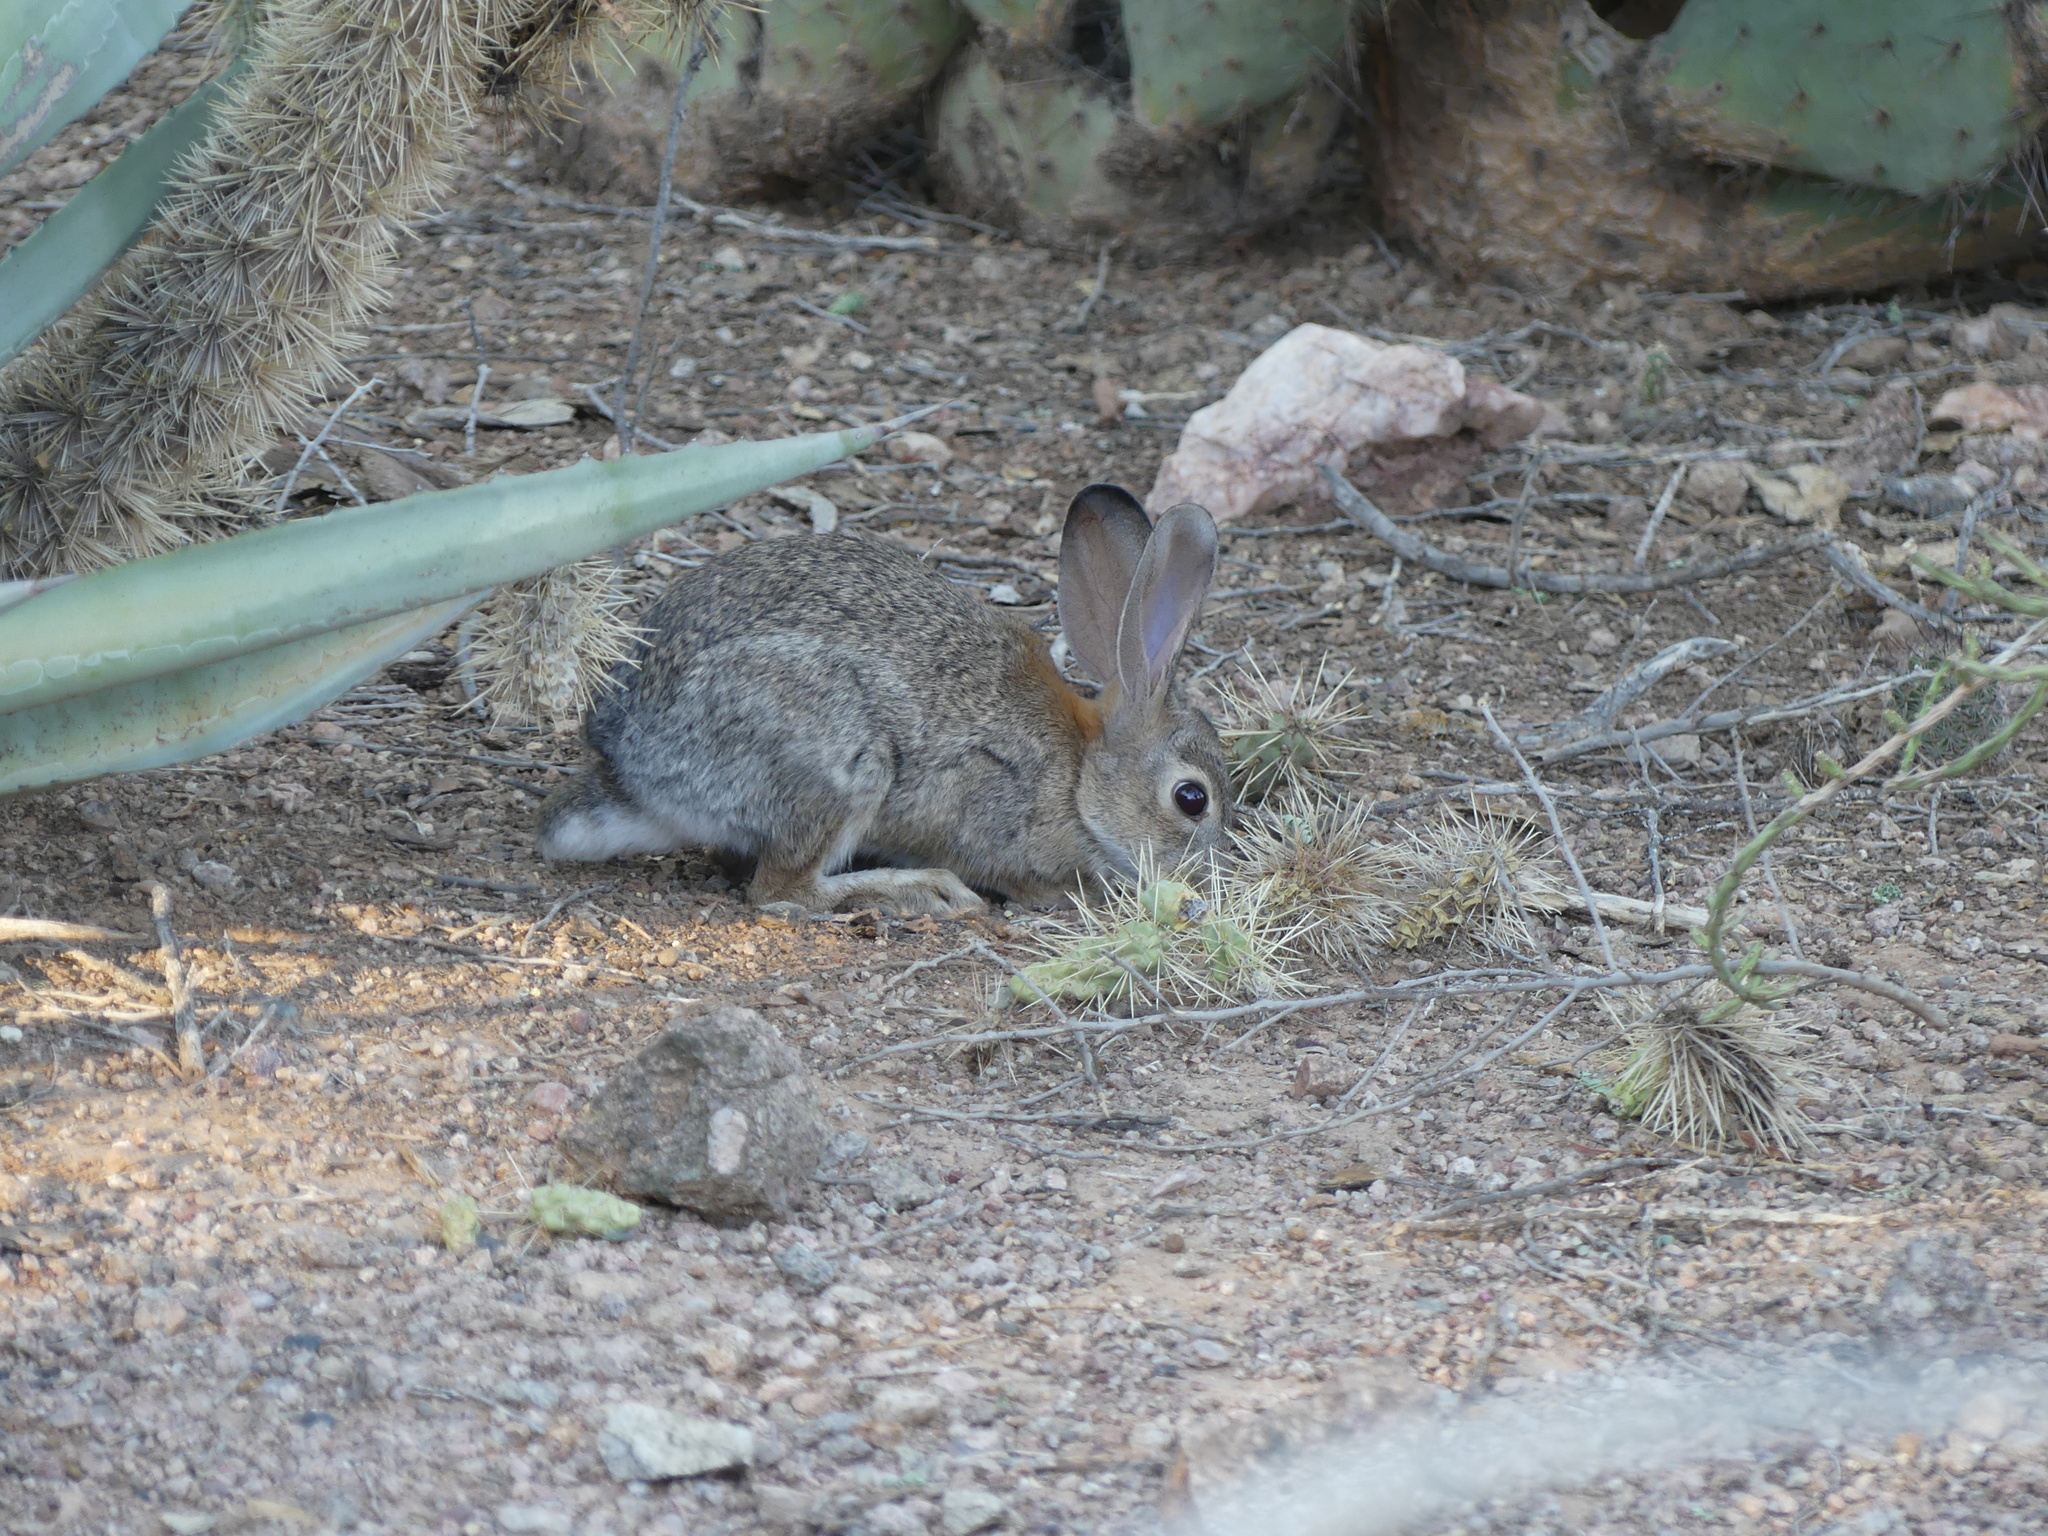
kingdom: Animalia
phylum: Chordata
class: Mammalia
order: Lagomorpha
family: Leporidae
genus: Sylvilagus
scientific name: Sylvilagus audubonii
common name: Desert cottontail
